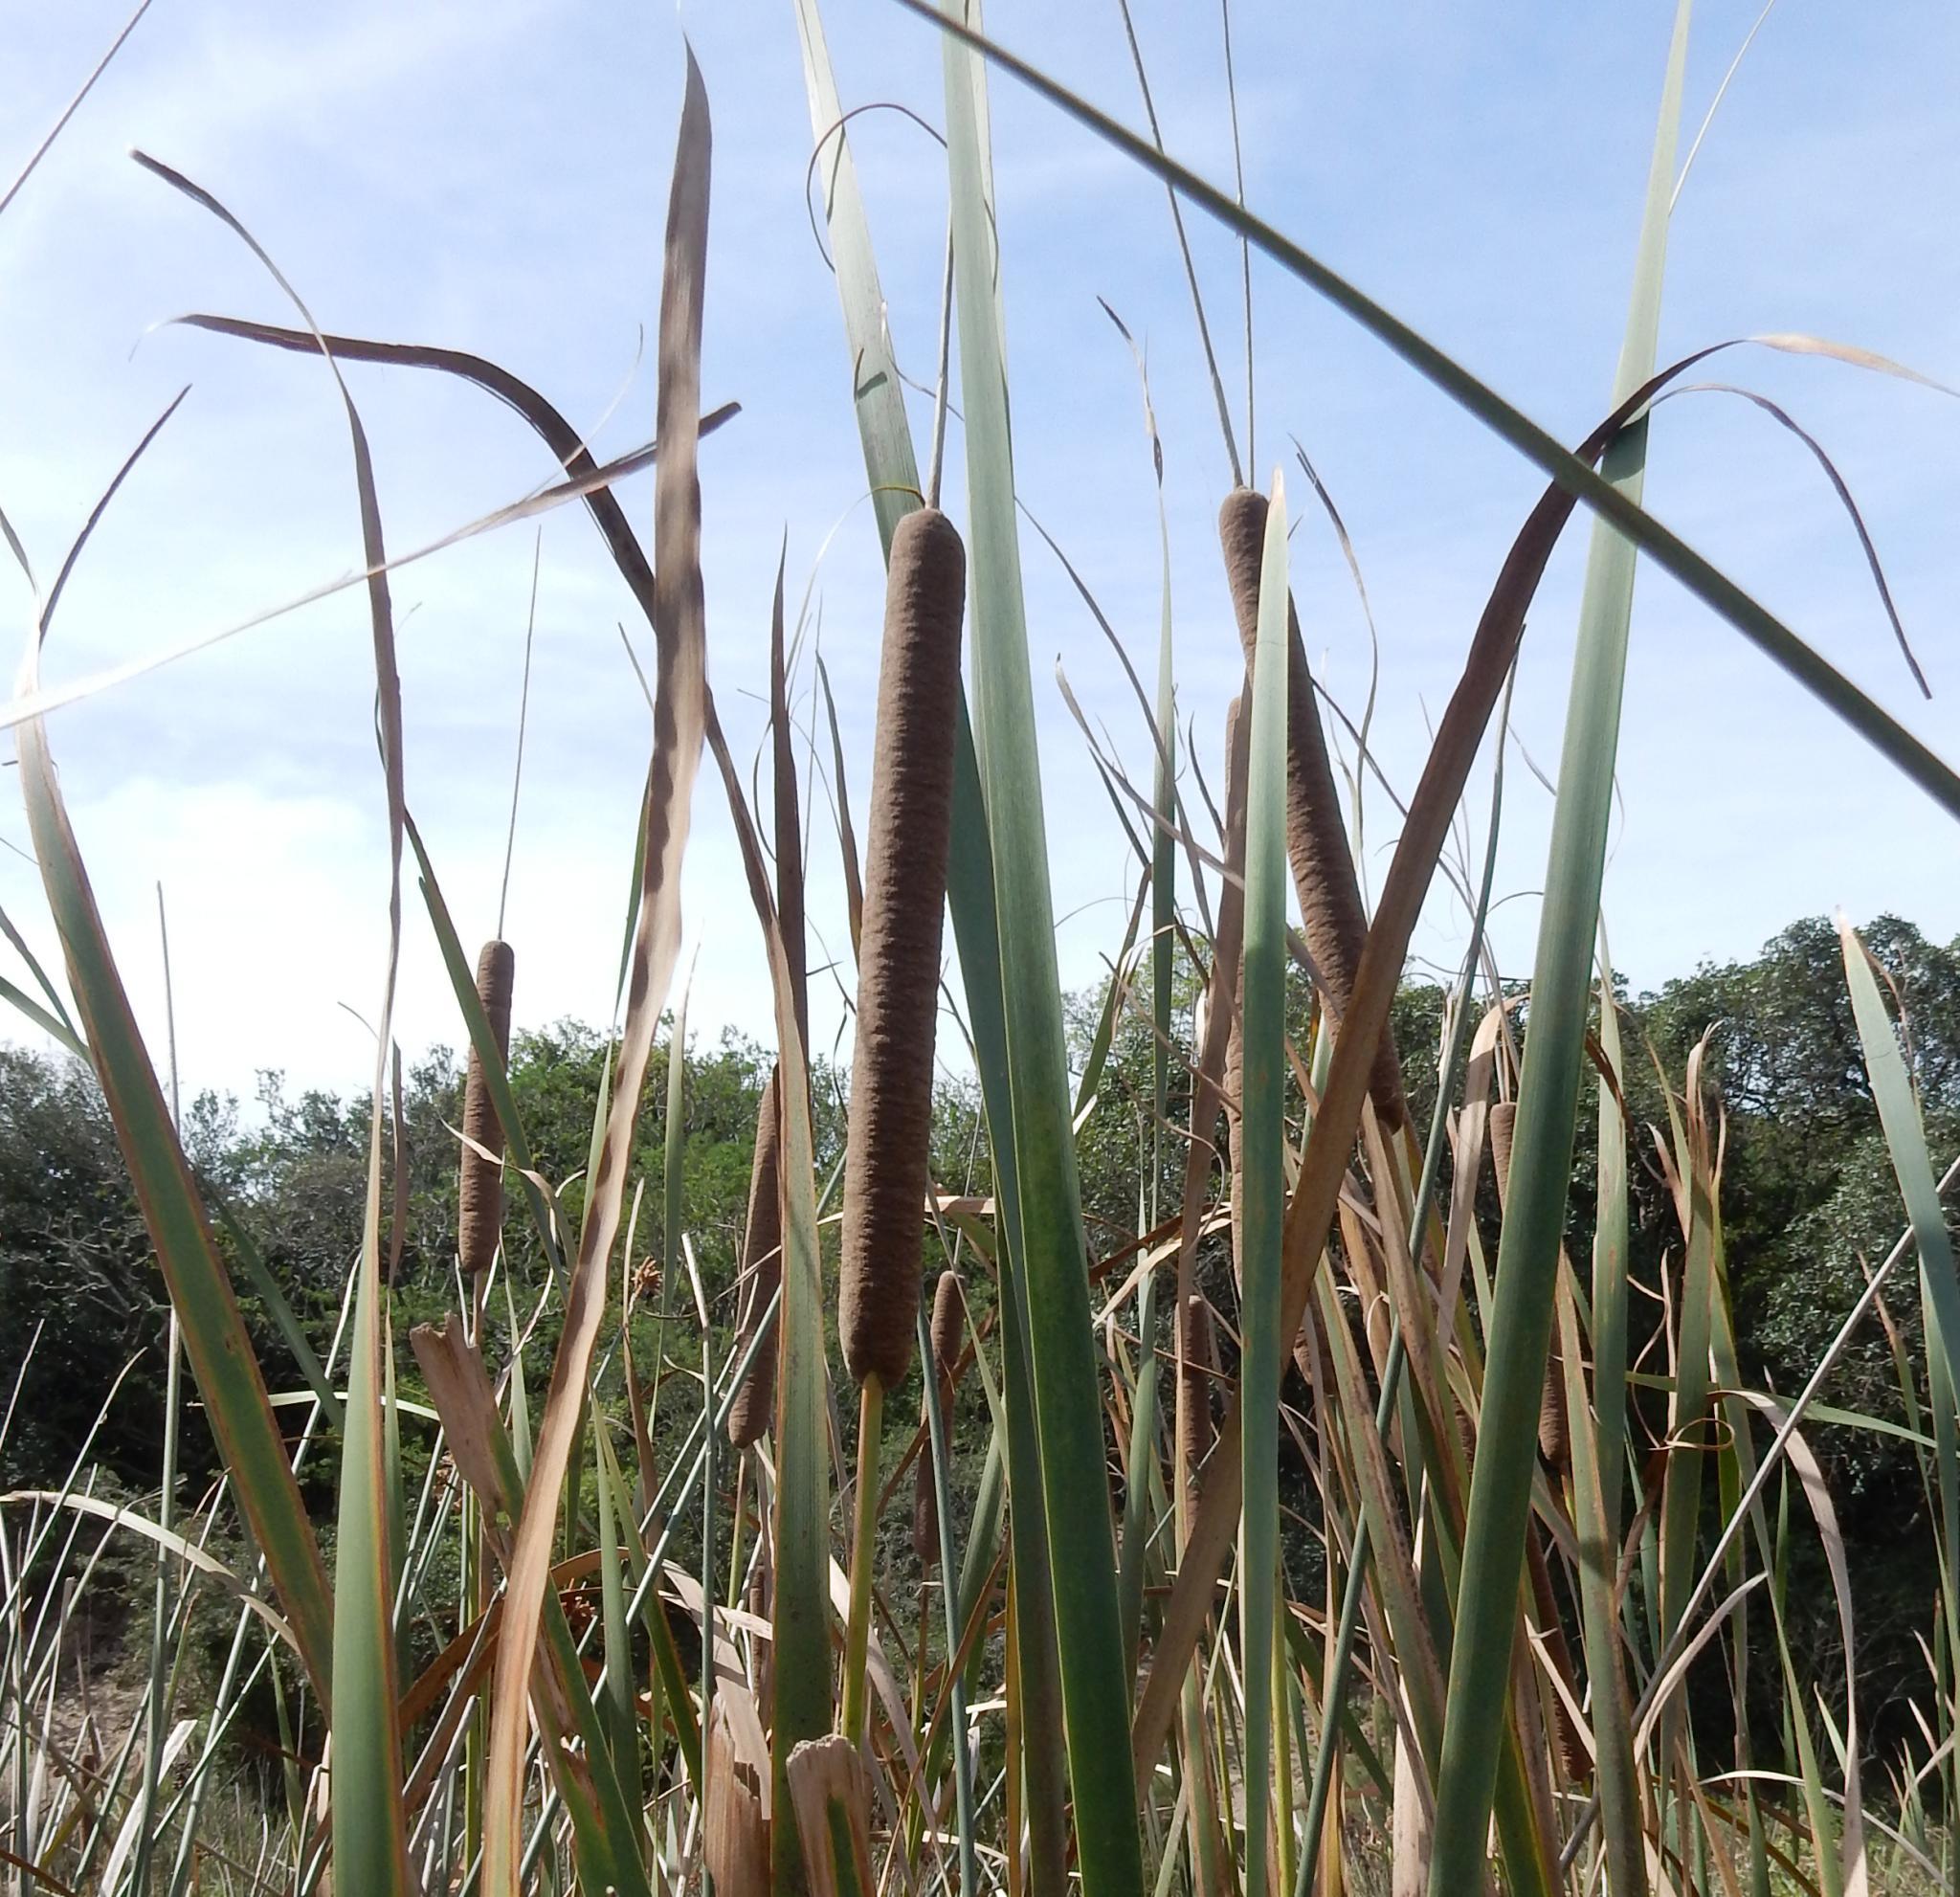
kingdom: Plantae
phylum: Tracheophyta
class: Liliopsida
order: Poales
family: Typhaceae
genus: Typha
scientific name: Typha capensis
